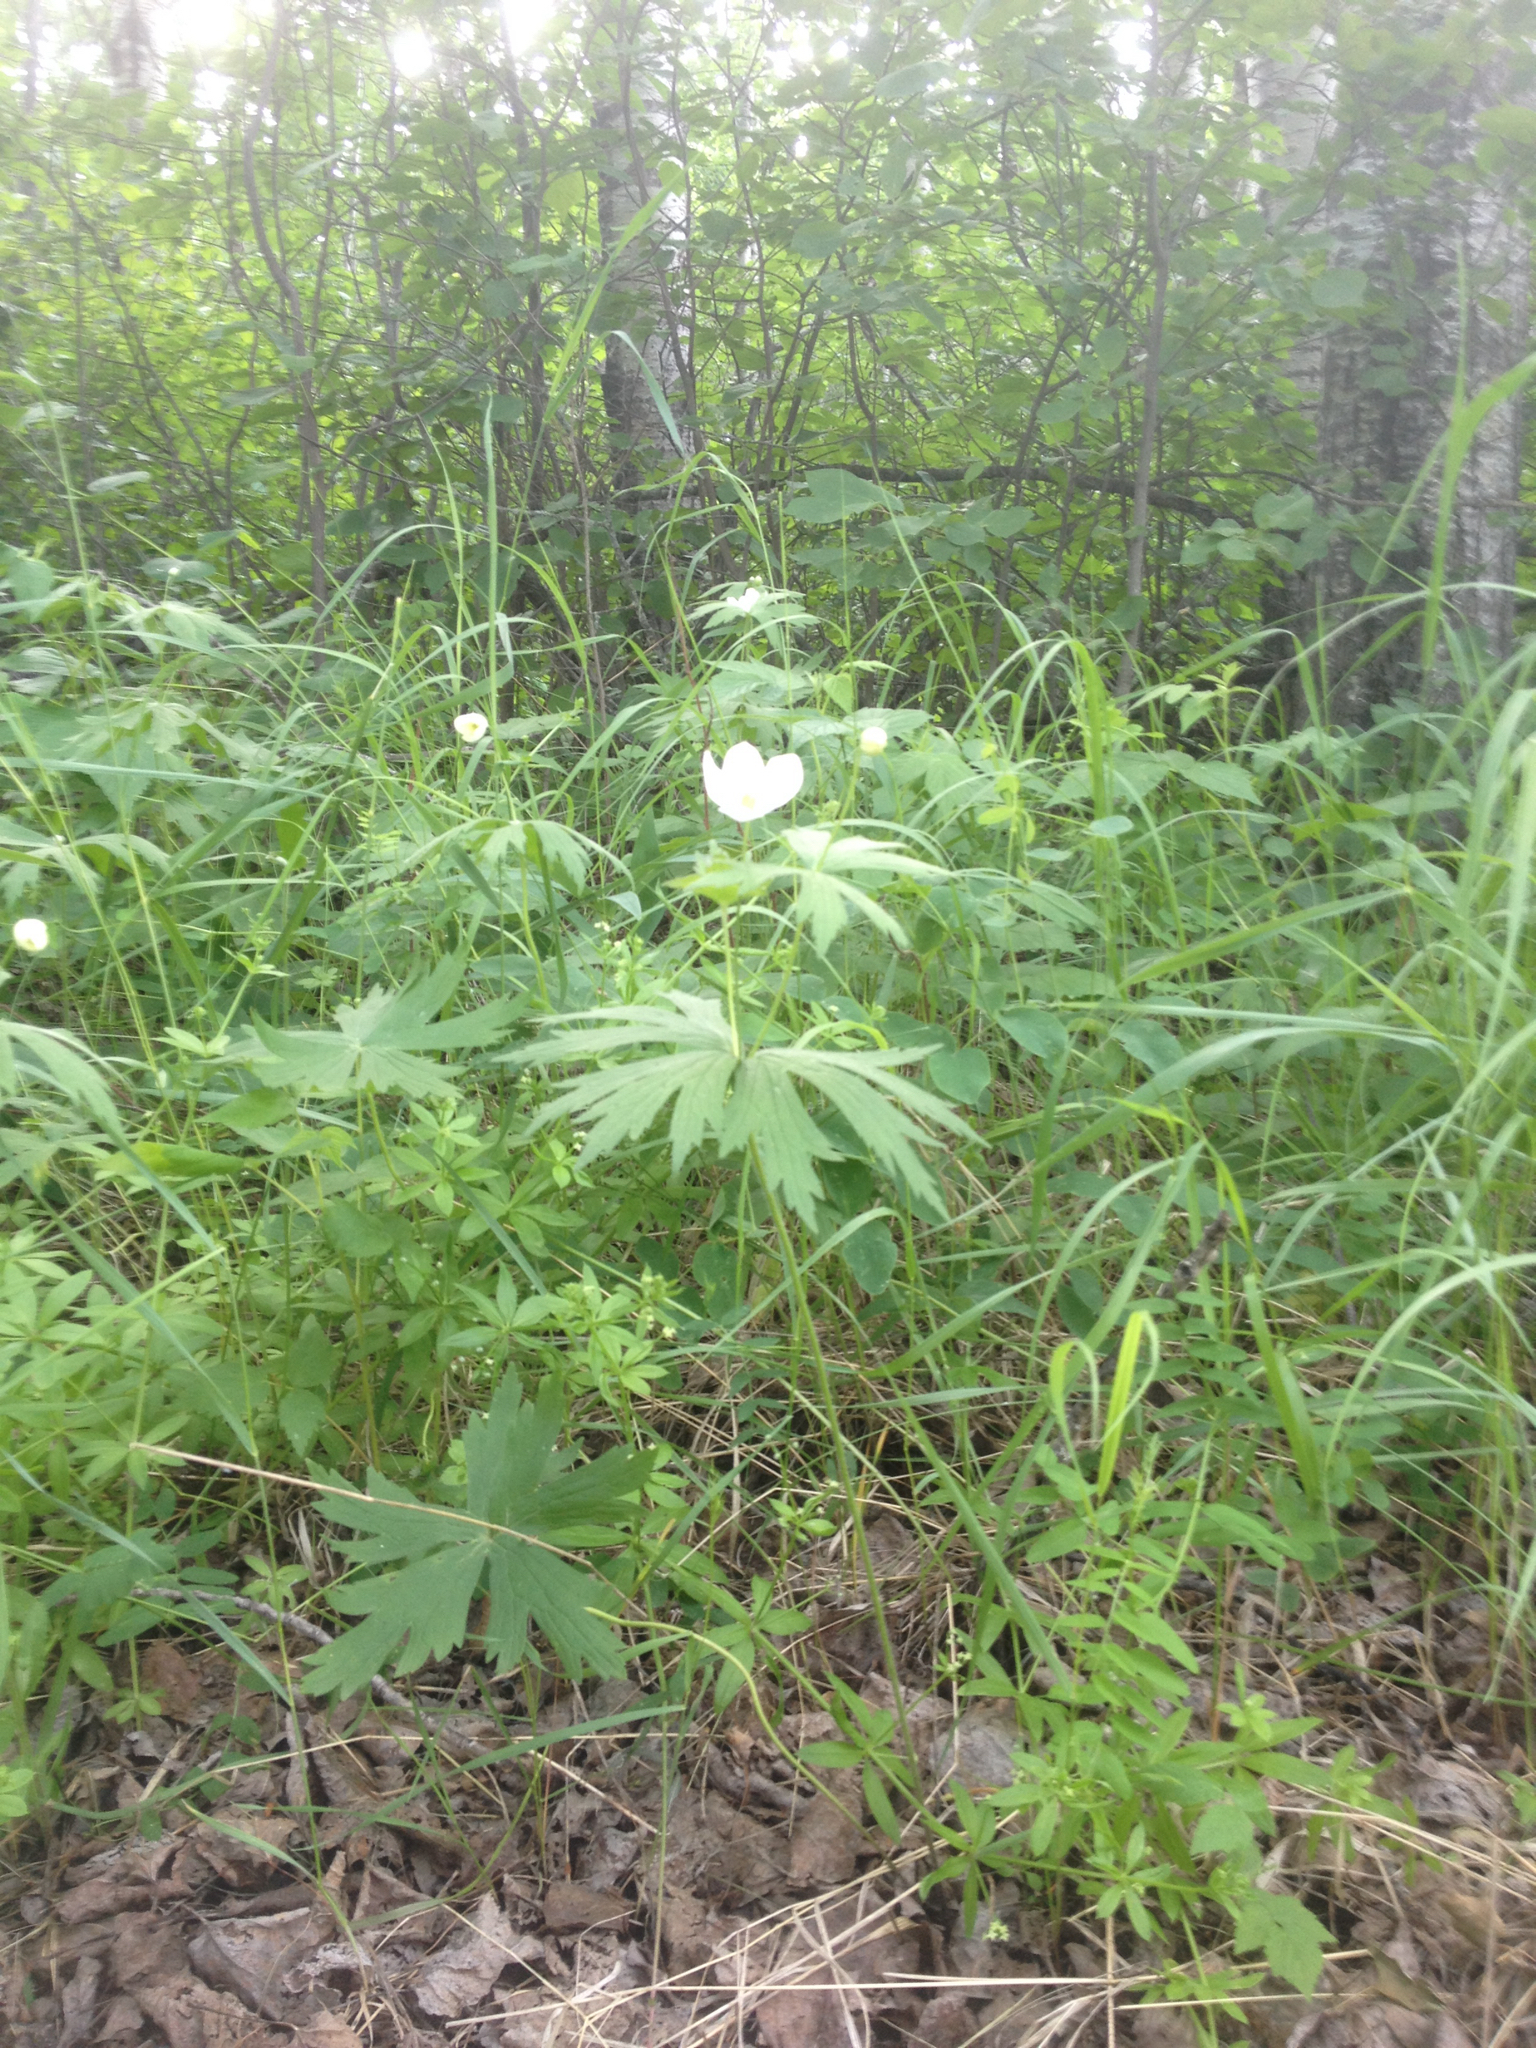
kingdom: Plantae
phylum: Tracheophyta
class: Magnoliopsida
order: Ranunculales
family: Ranunculaceae
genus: Anemonastrum
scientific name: Anemonastrum canadense
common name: Canada anemone
